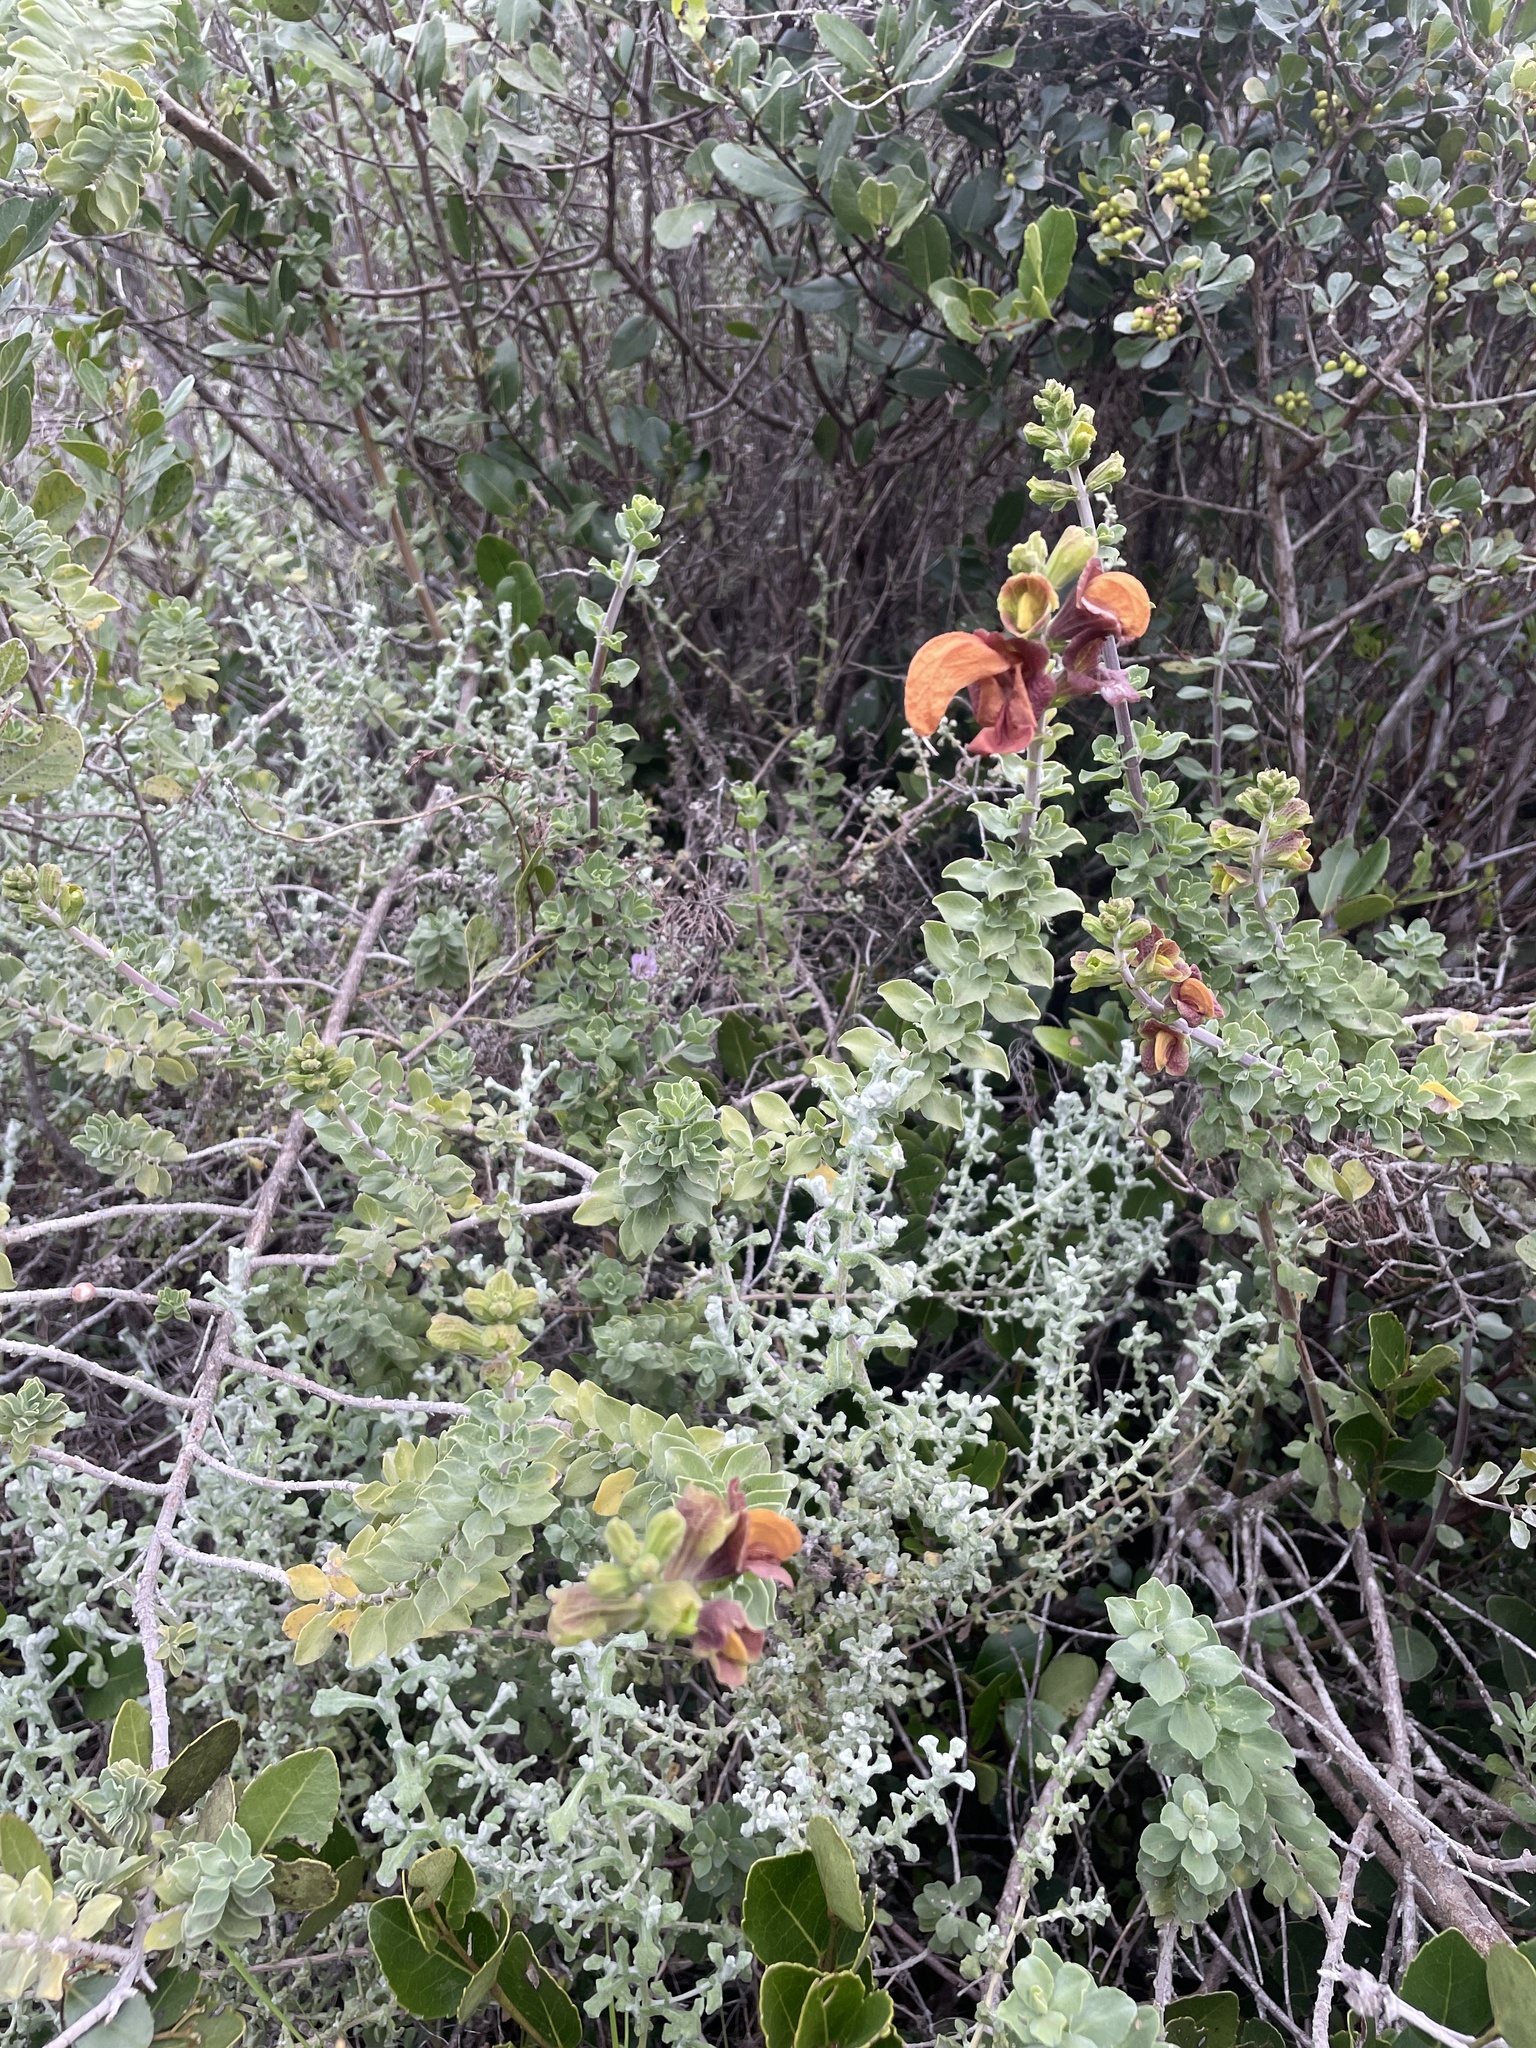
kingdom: Plantae
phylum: Tracheophyta
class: Magnoliopsida
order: Lamiales
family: Lamiaceae
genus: Salvia
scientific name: Salvia aurea
